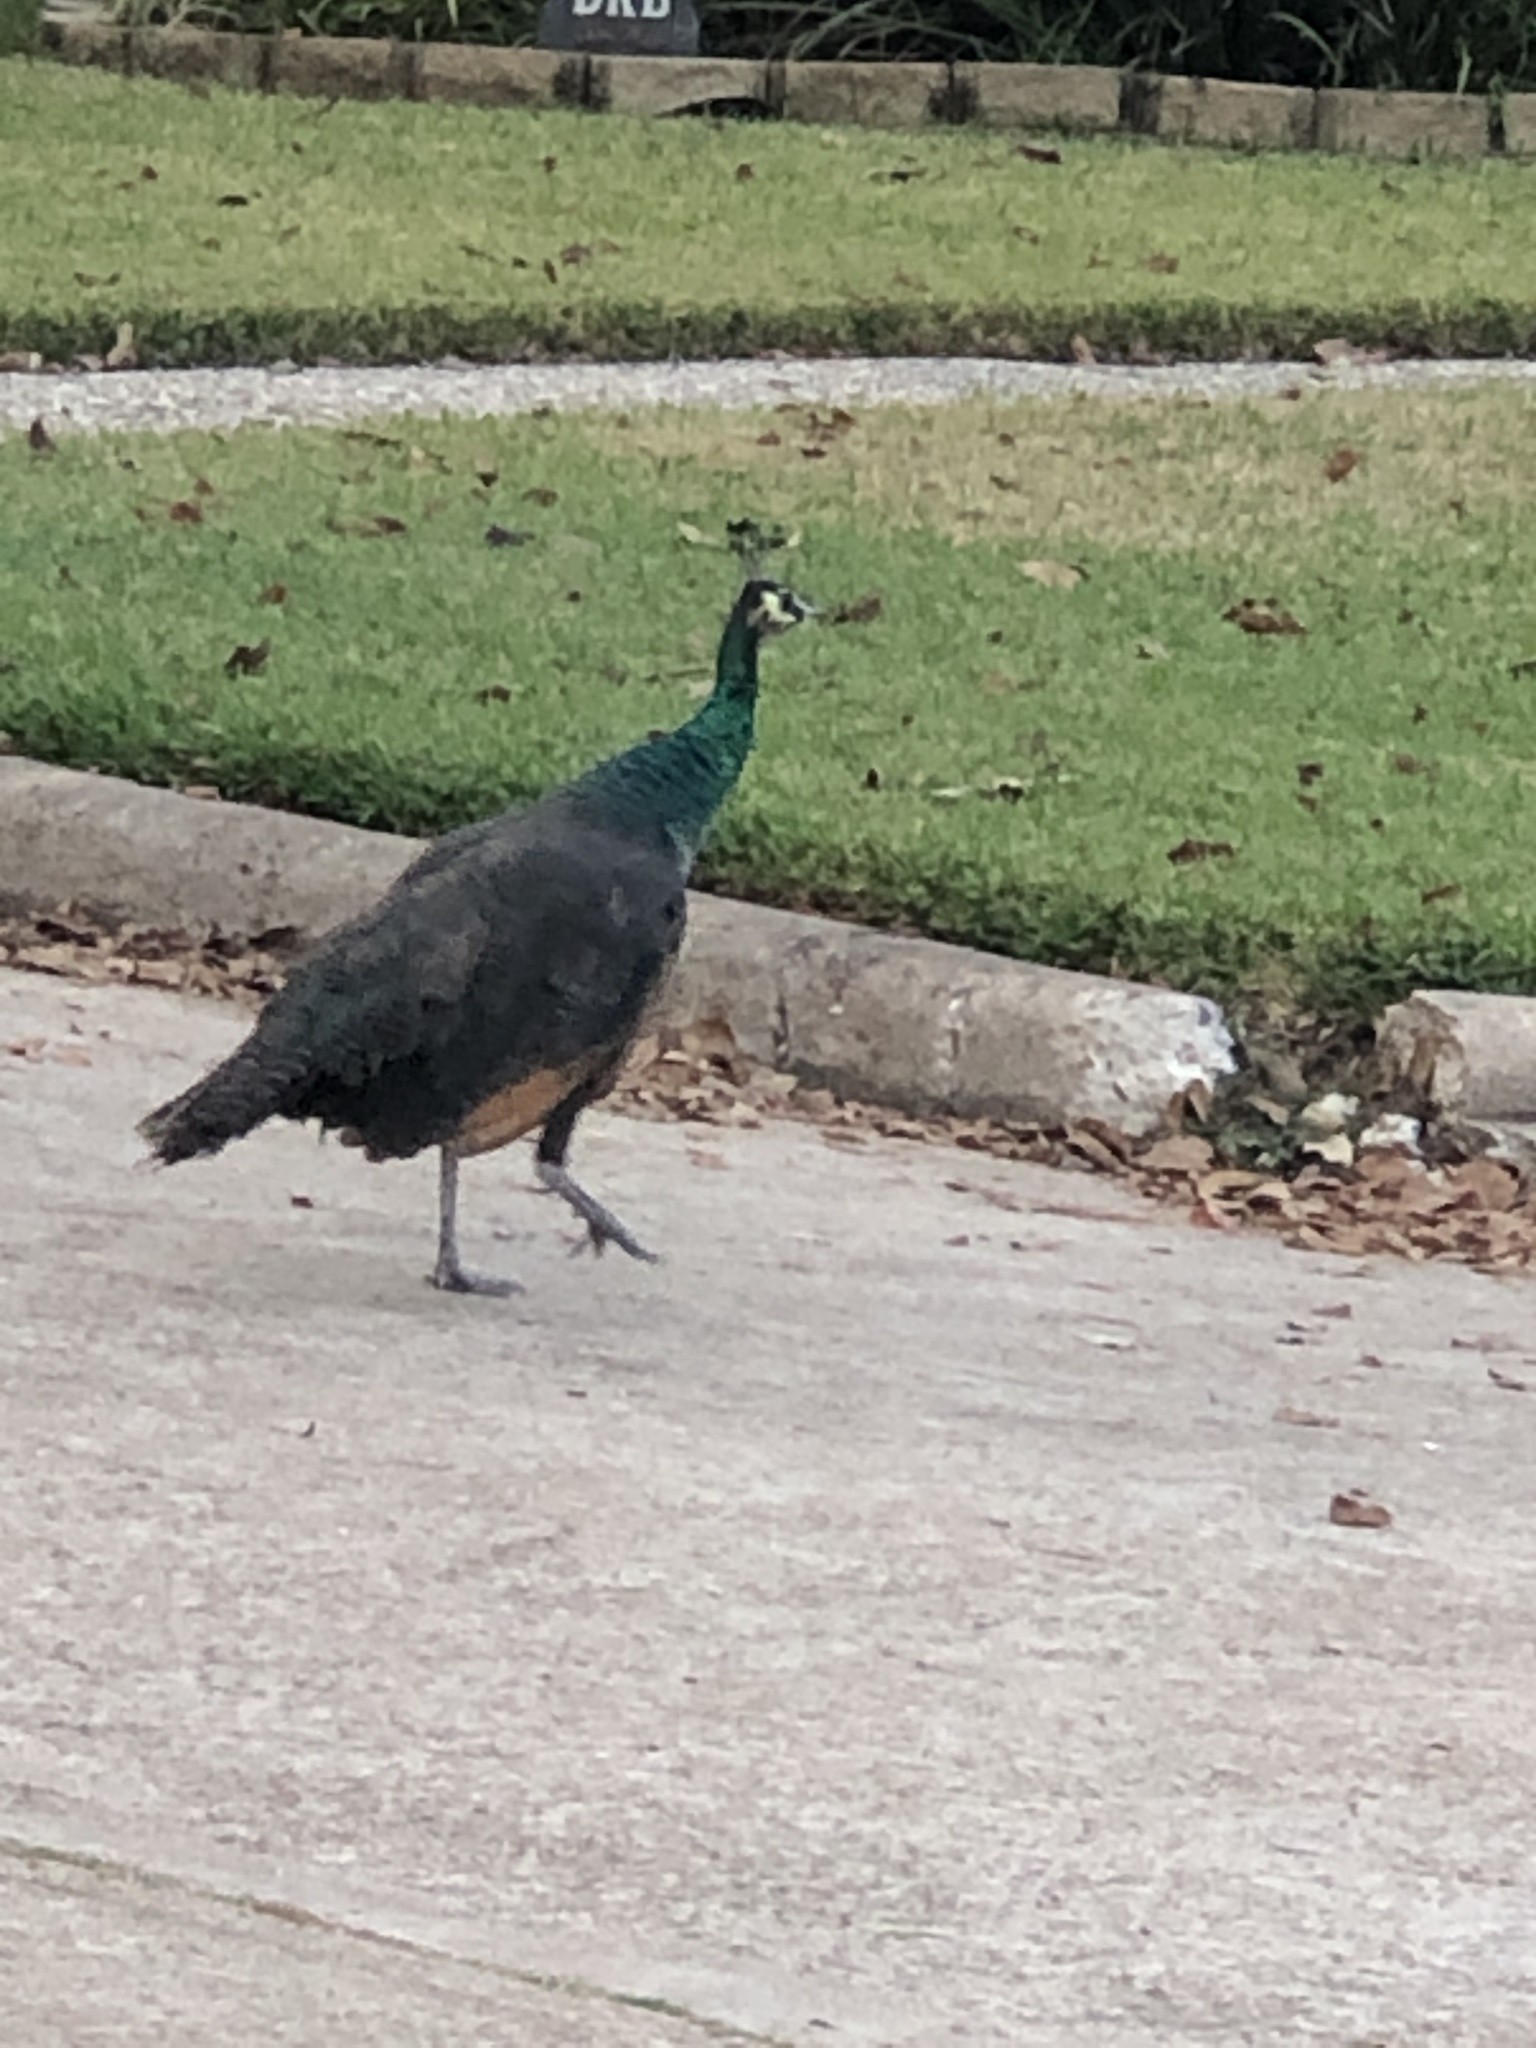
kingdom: Animalia
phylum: Chordata
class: Aves
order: Galliformes
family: Phasianidae
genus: Pavo
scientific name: Pavo
